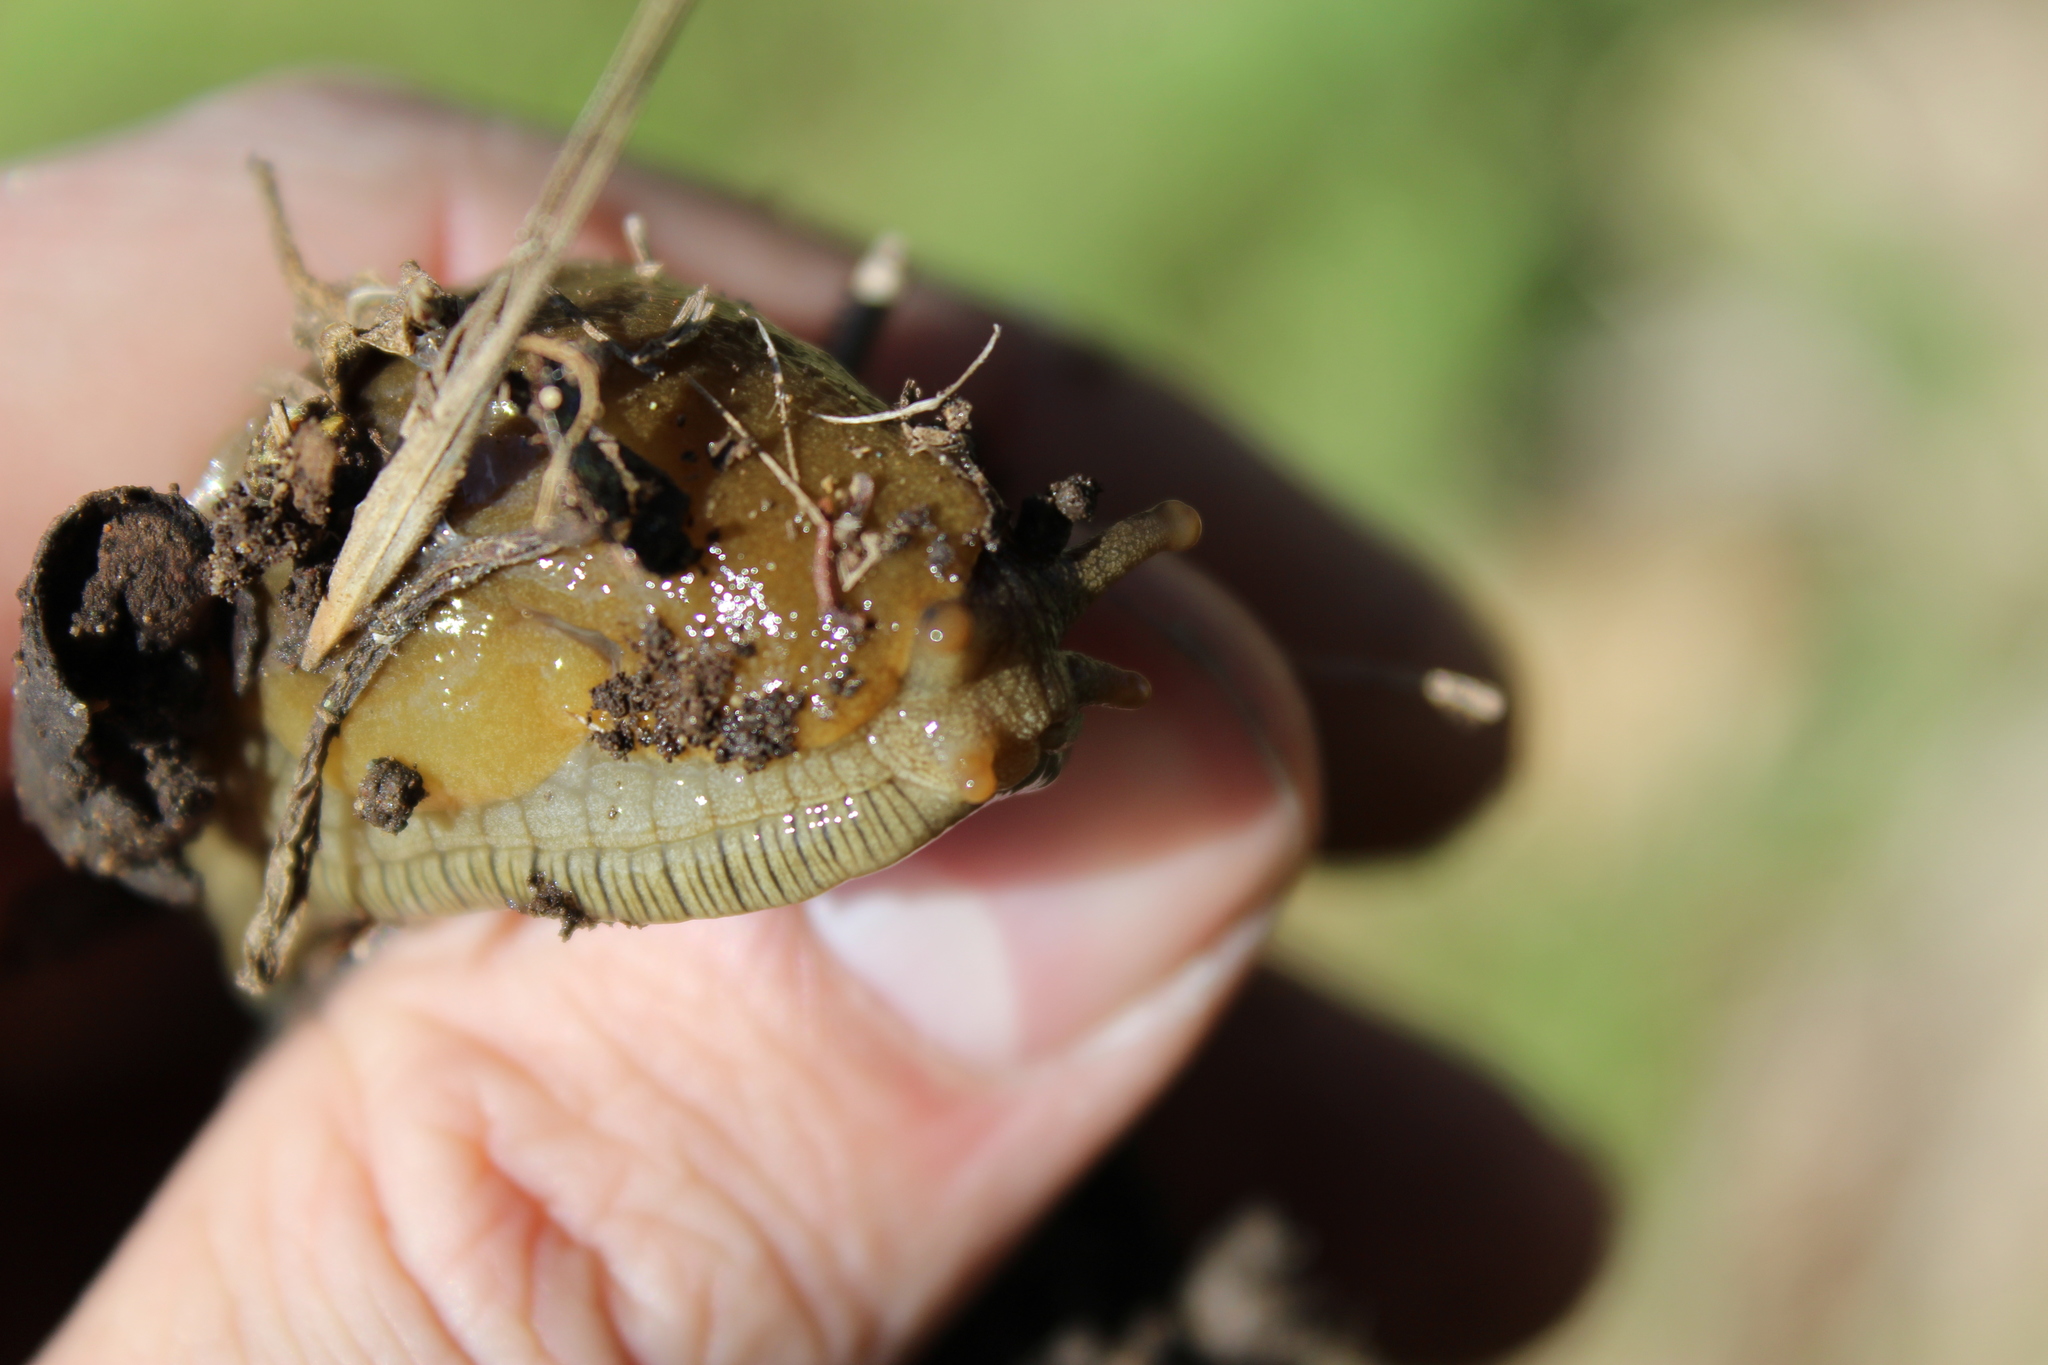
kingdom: Animalia
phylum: Mollusca
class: Gastropoda
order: Stylommatophora
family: Ariolimacidae
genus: Ariolimax
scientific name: Ariolimax buttoni
